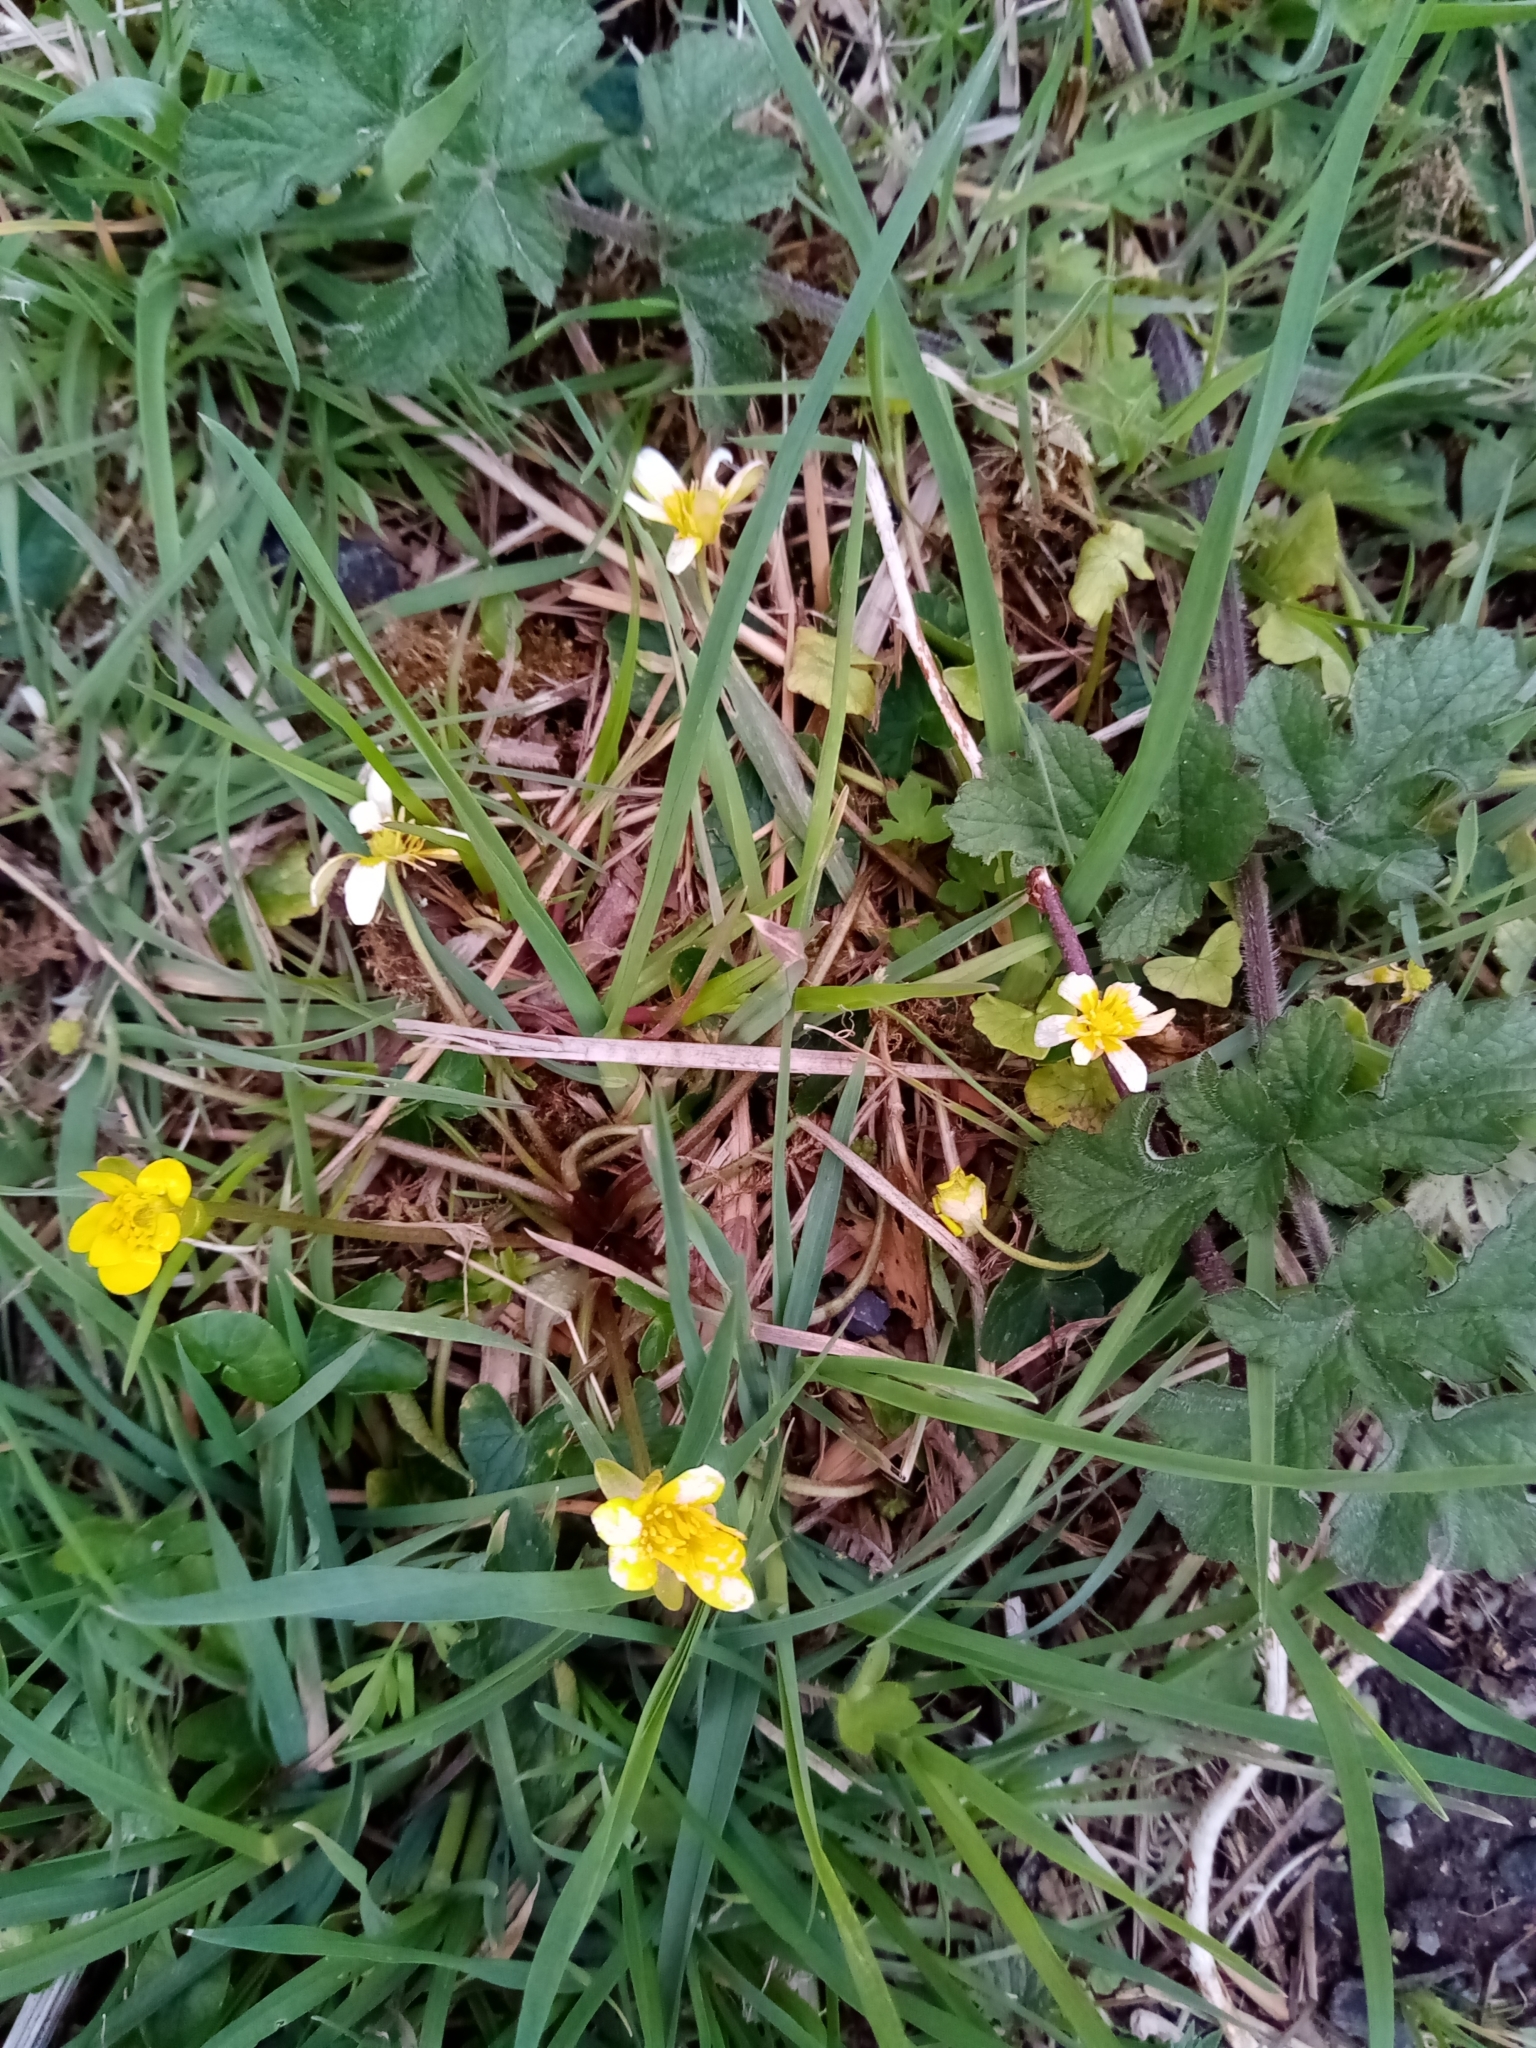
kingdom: Plantae
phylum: Tracheophyta
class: Magnoliopsida
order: Ranunculales
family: Ranunculaceae
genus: Ficaria
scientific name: Ficaria verna
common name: Lesser celandine
